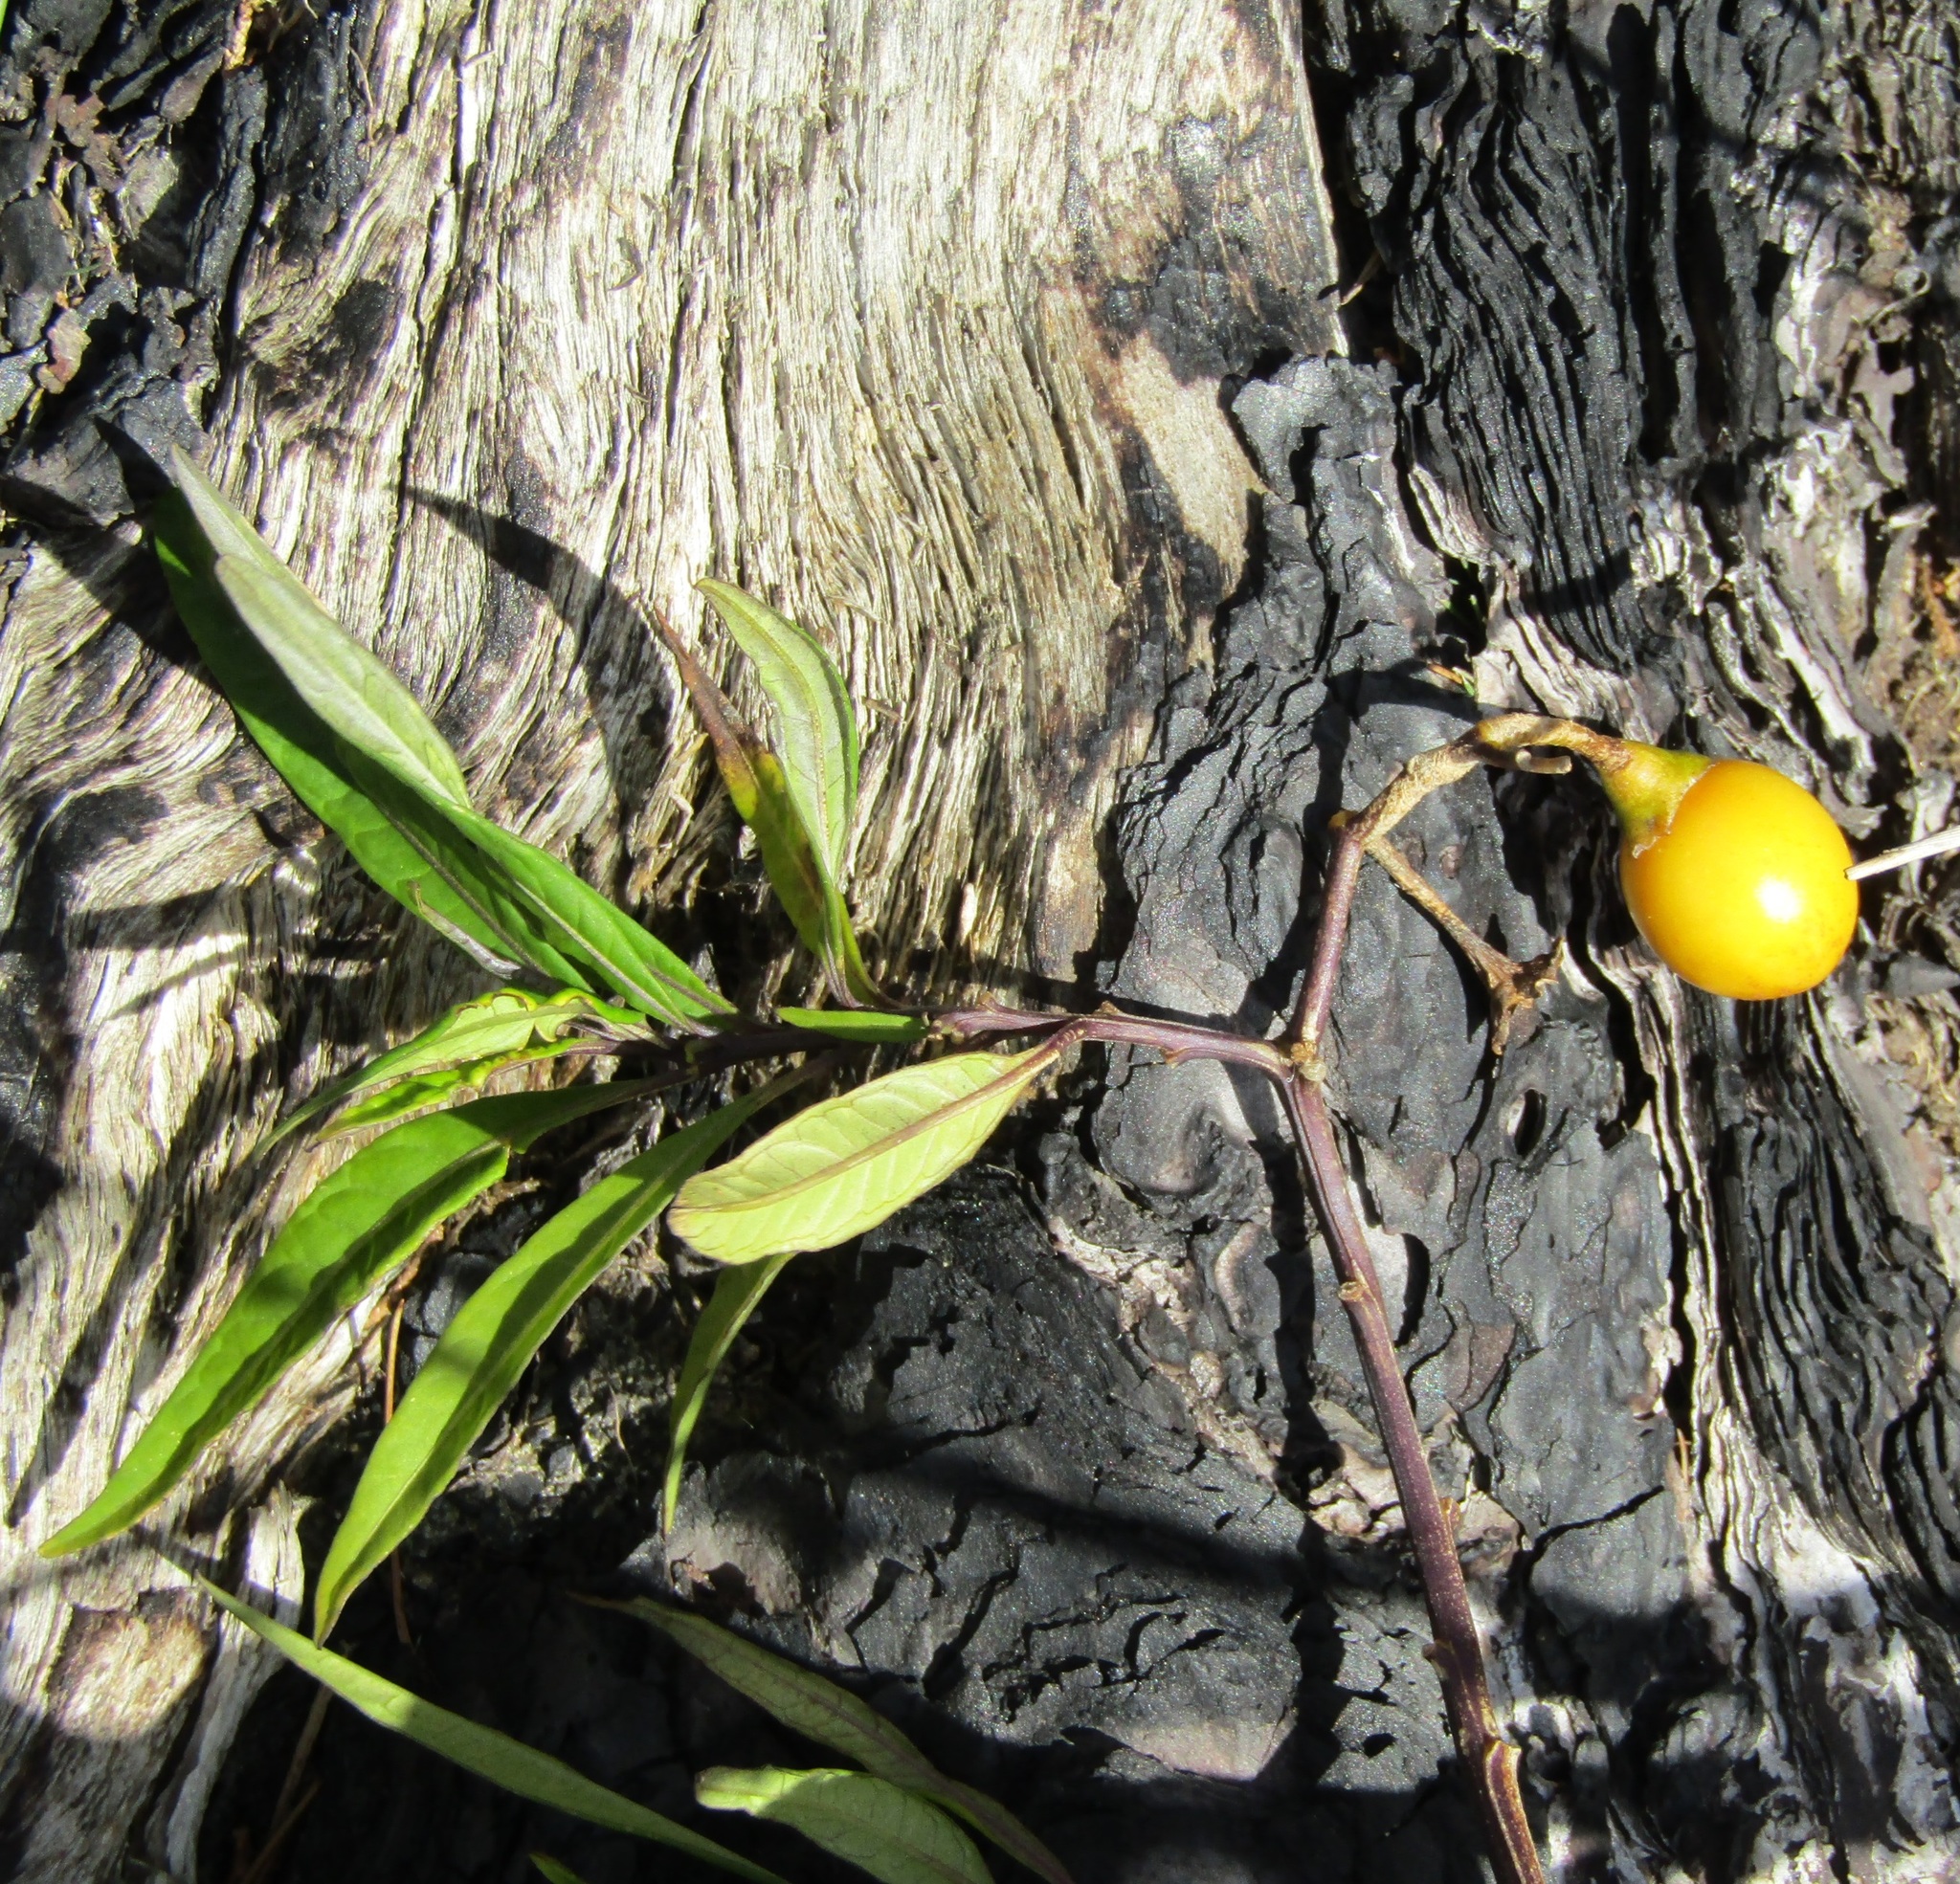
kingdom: Plantae
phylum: Tracheophyta
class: Magnoliopsida
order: Solanales
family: Solanaceae
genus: Solanum
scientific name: Solanum
